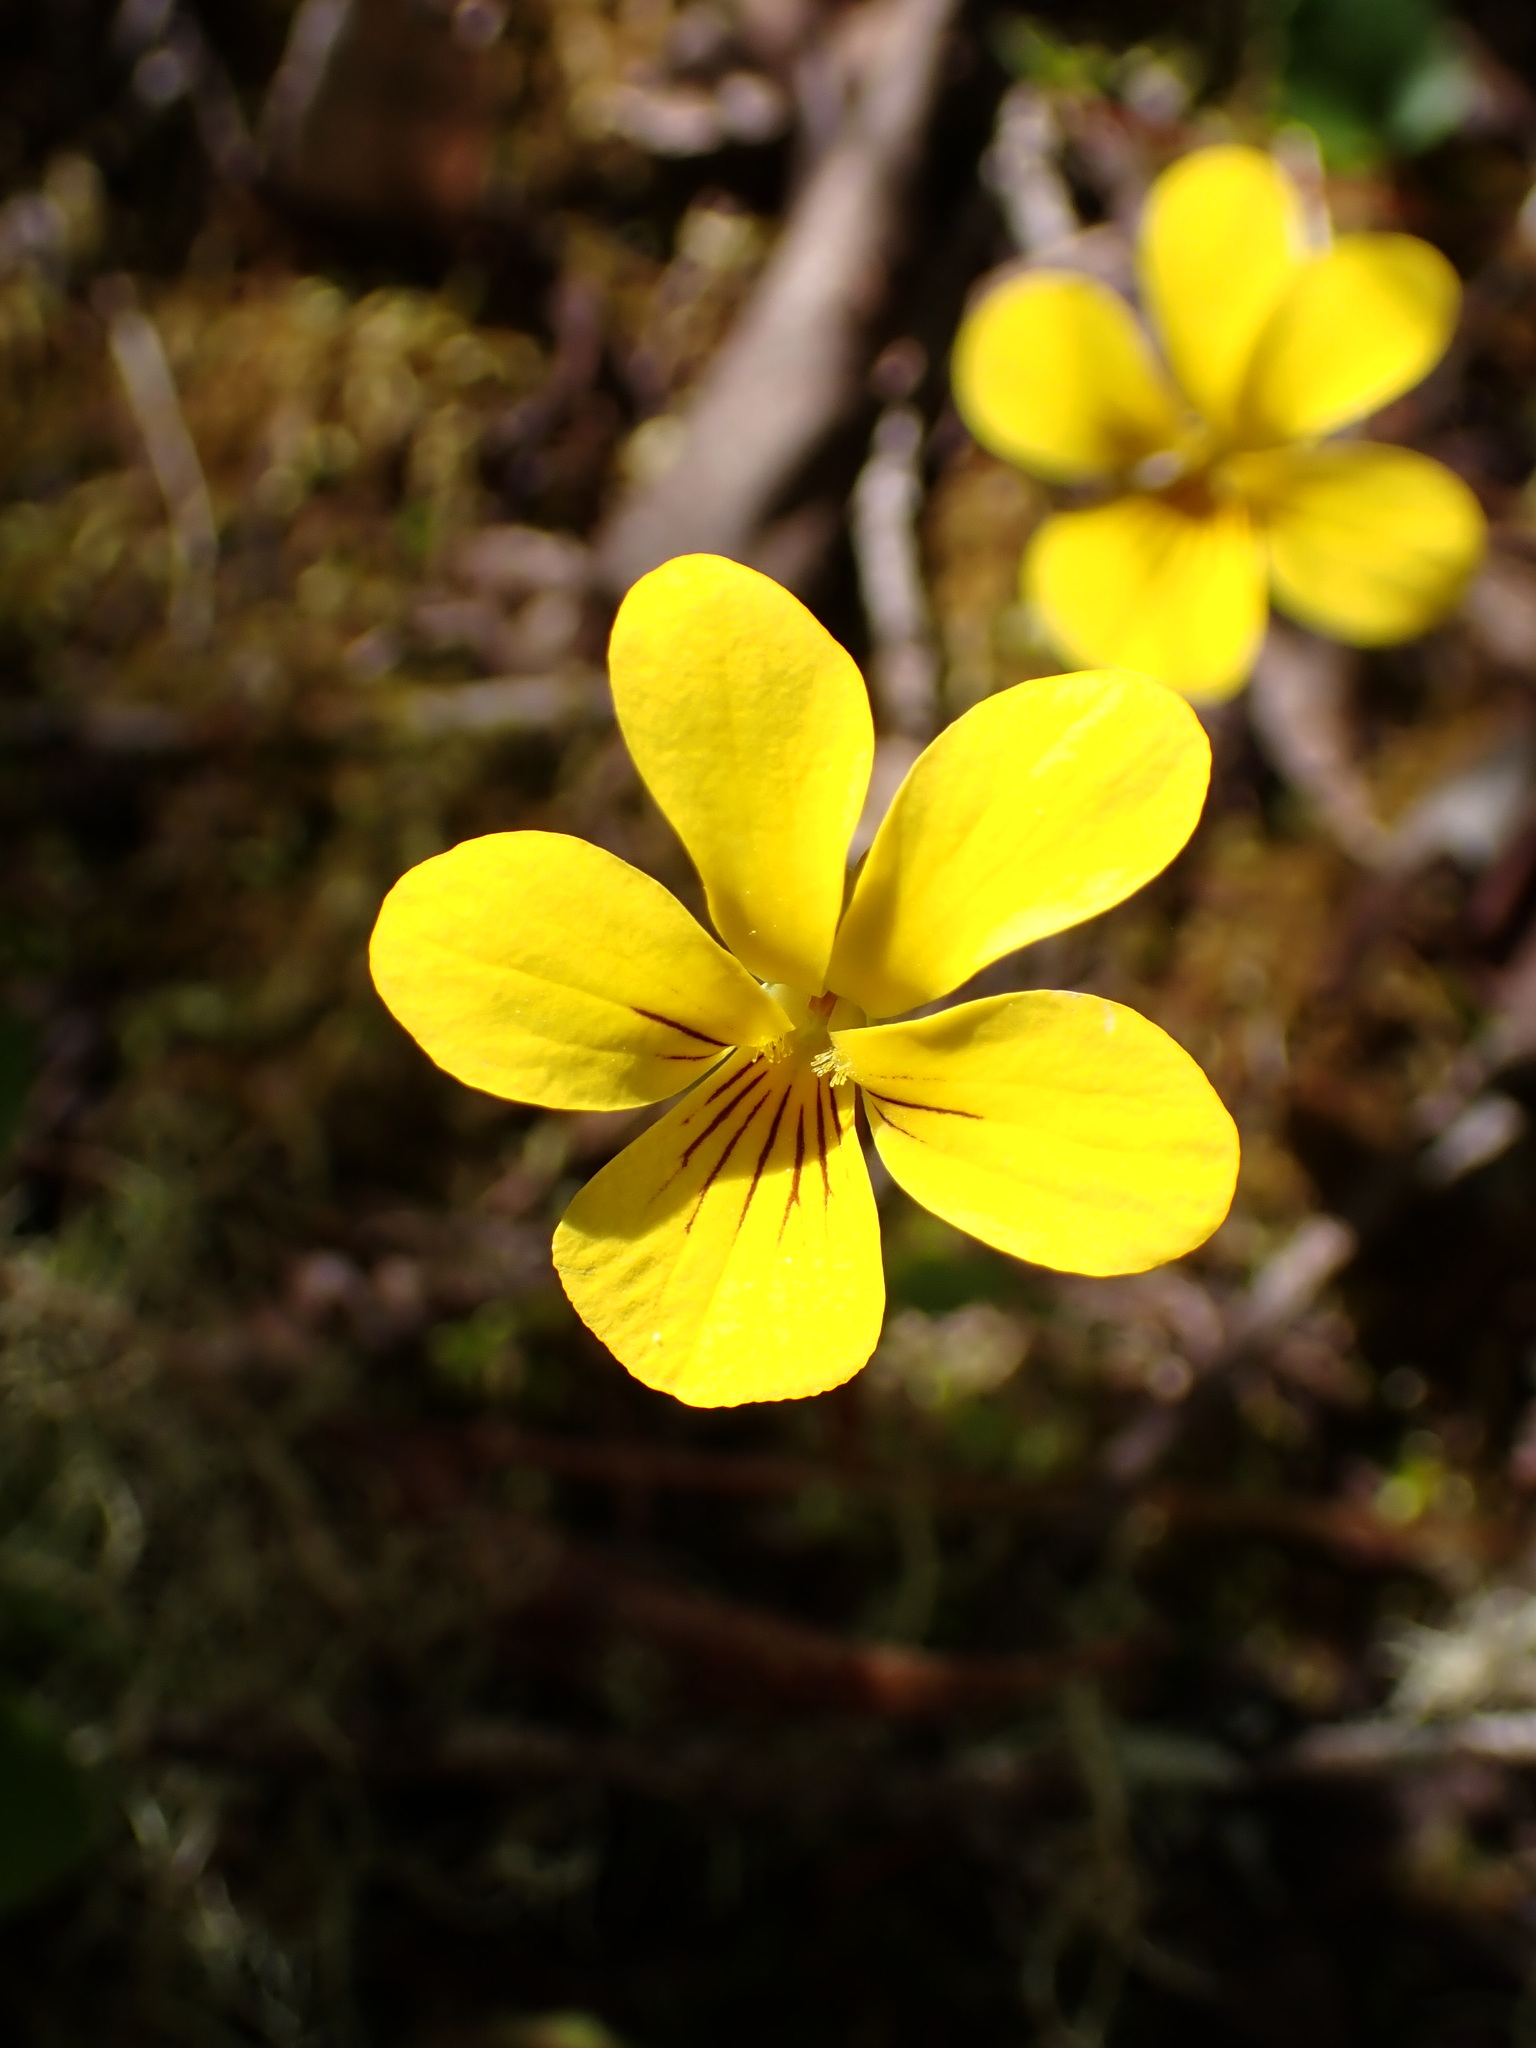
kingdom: Plantae
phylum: Tracheophyta
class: Magnoliopsida
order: Malpighiales
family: Violaceae
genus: Viola
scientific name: Viola sempervirens
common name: Evergreen violet
